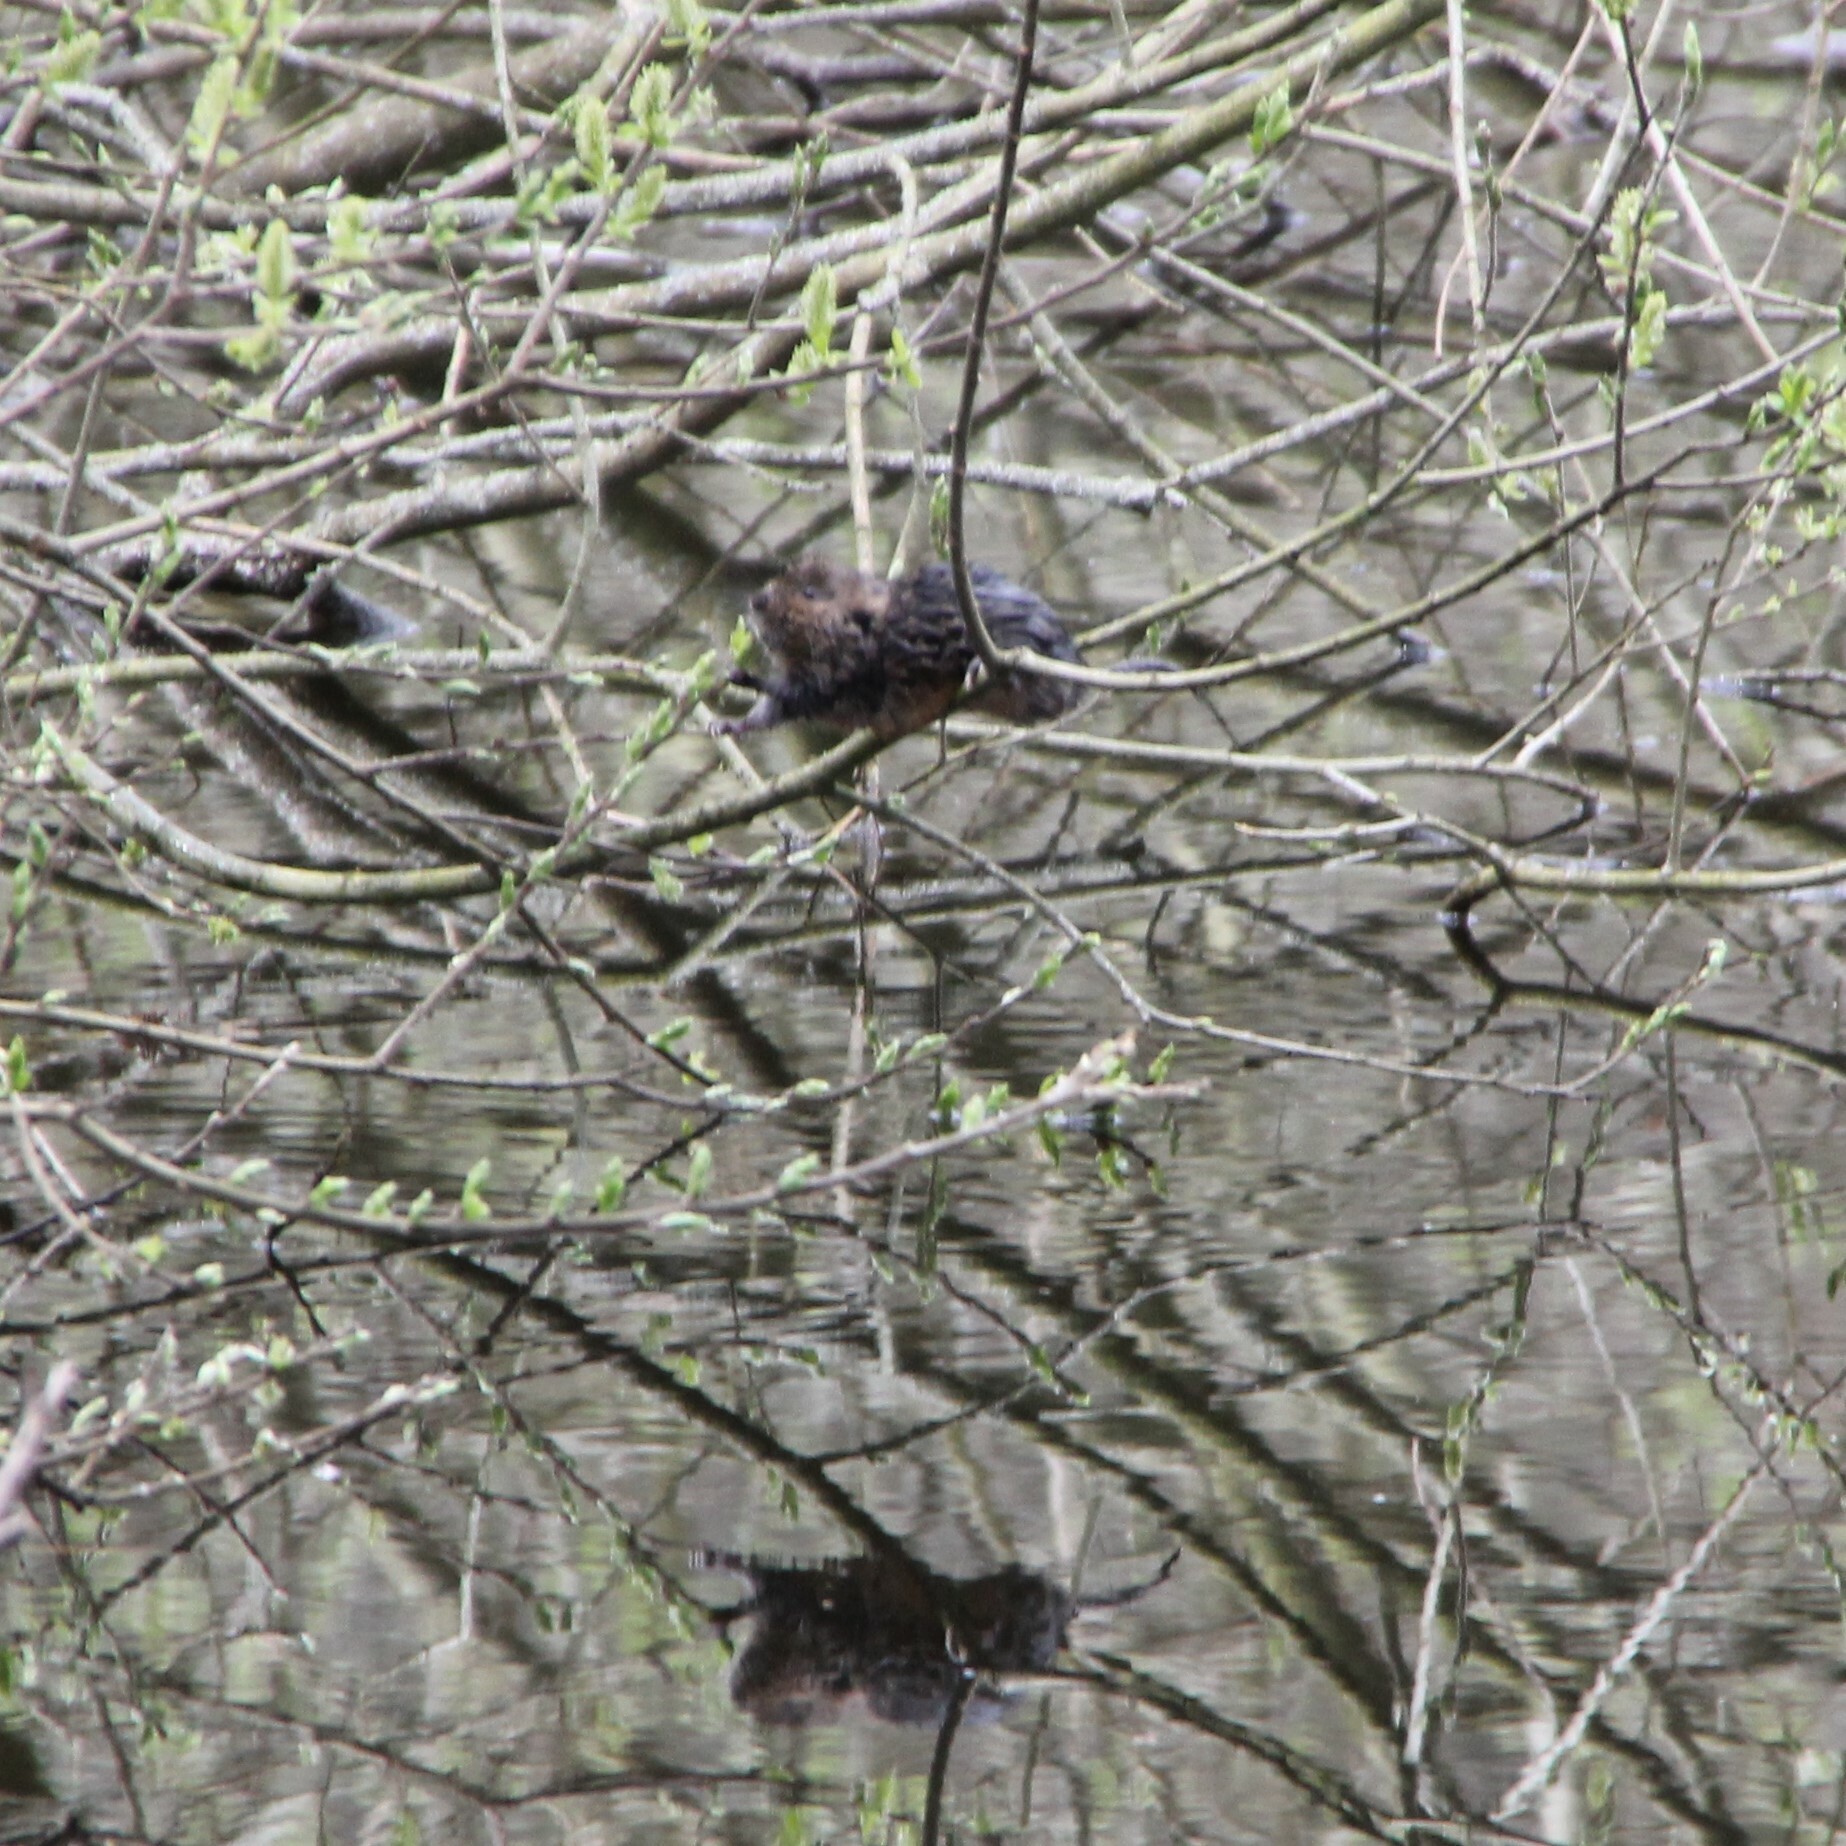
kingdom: Animalia
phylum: Chordata
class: Mammalia
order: Rodentia
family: Cricetidae
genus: Arvicola
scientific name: Arvicola amphibius
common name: European water vole
